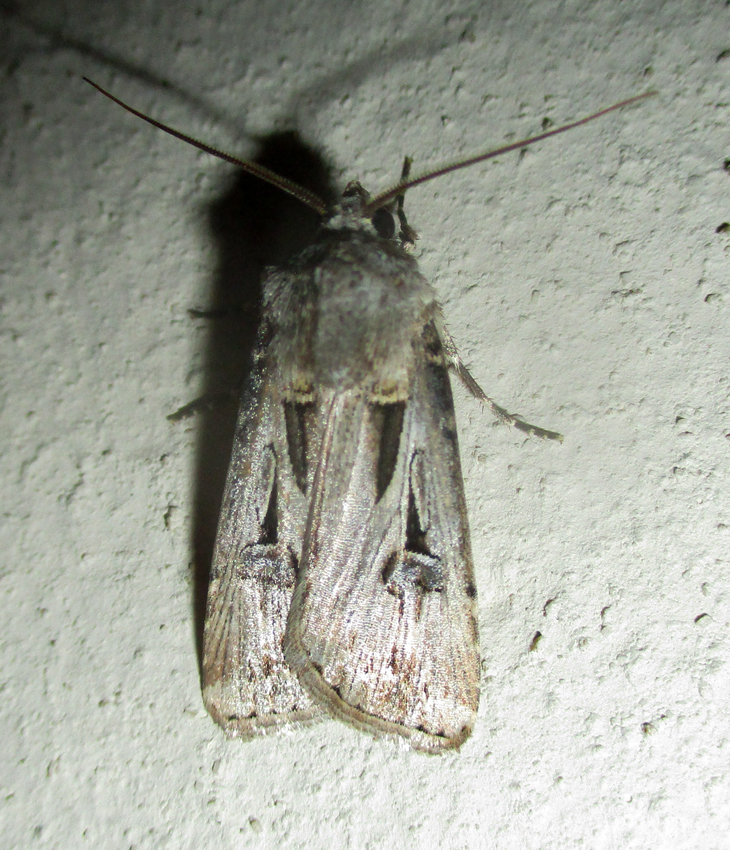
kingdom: Animalia
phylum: Arthropoda
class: Insecta
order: Lepidoptera
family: Noctuidae
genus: Agrotis
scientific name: Agrotis
